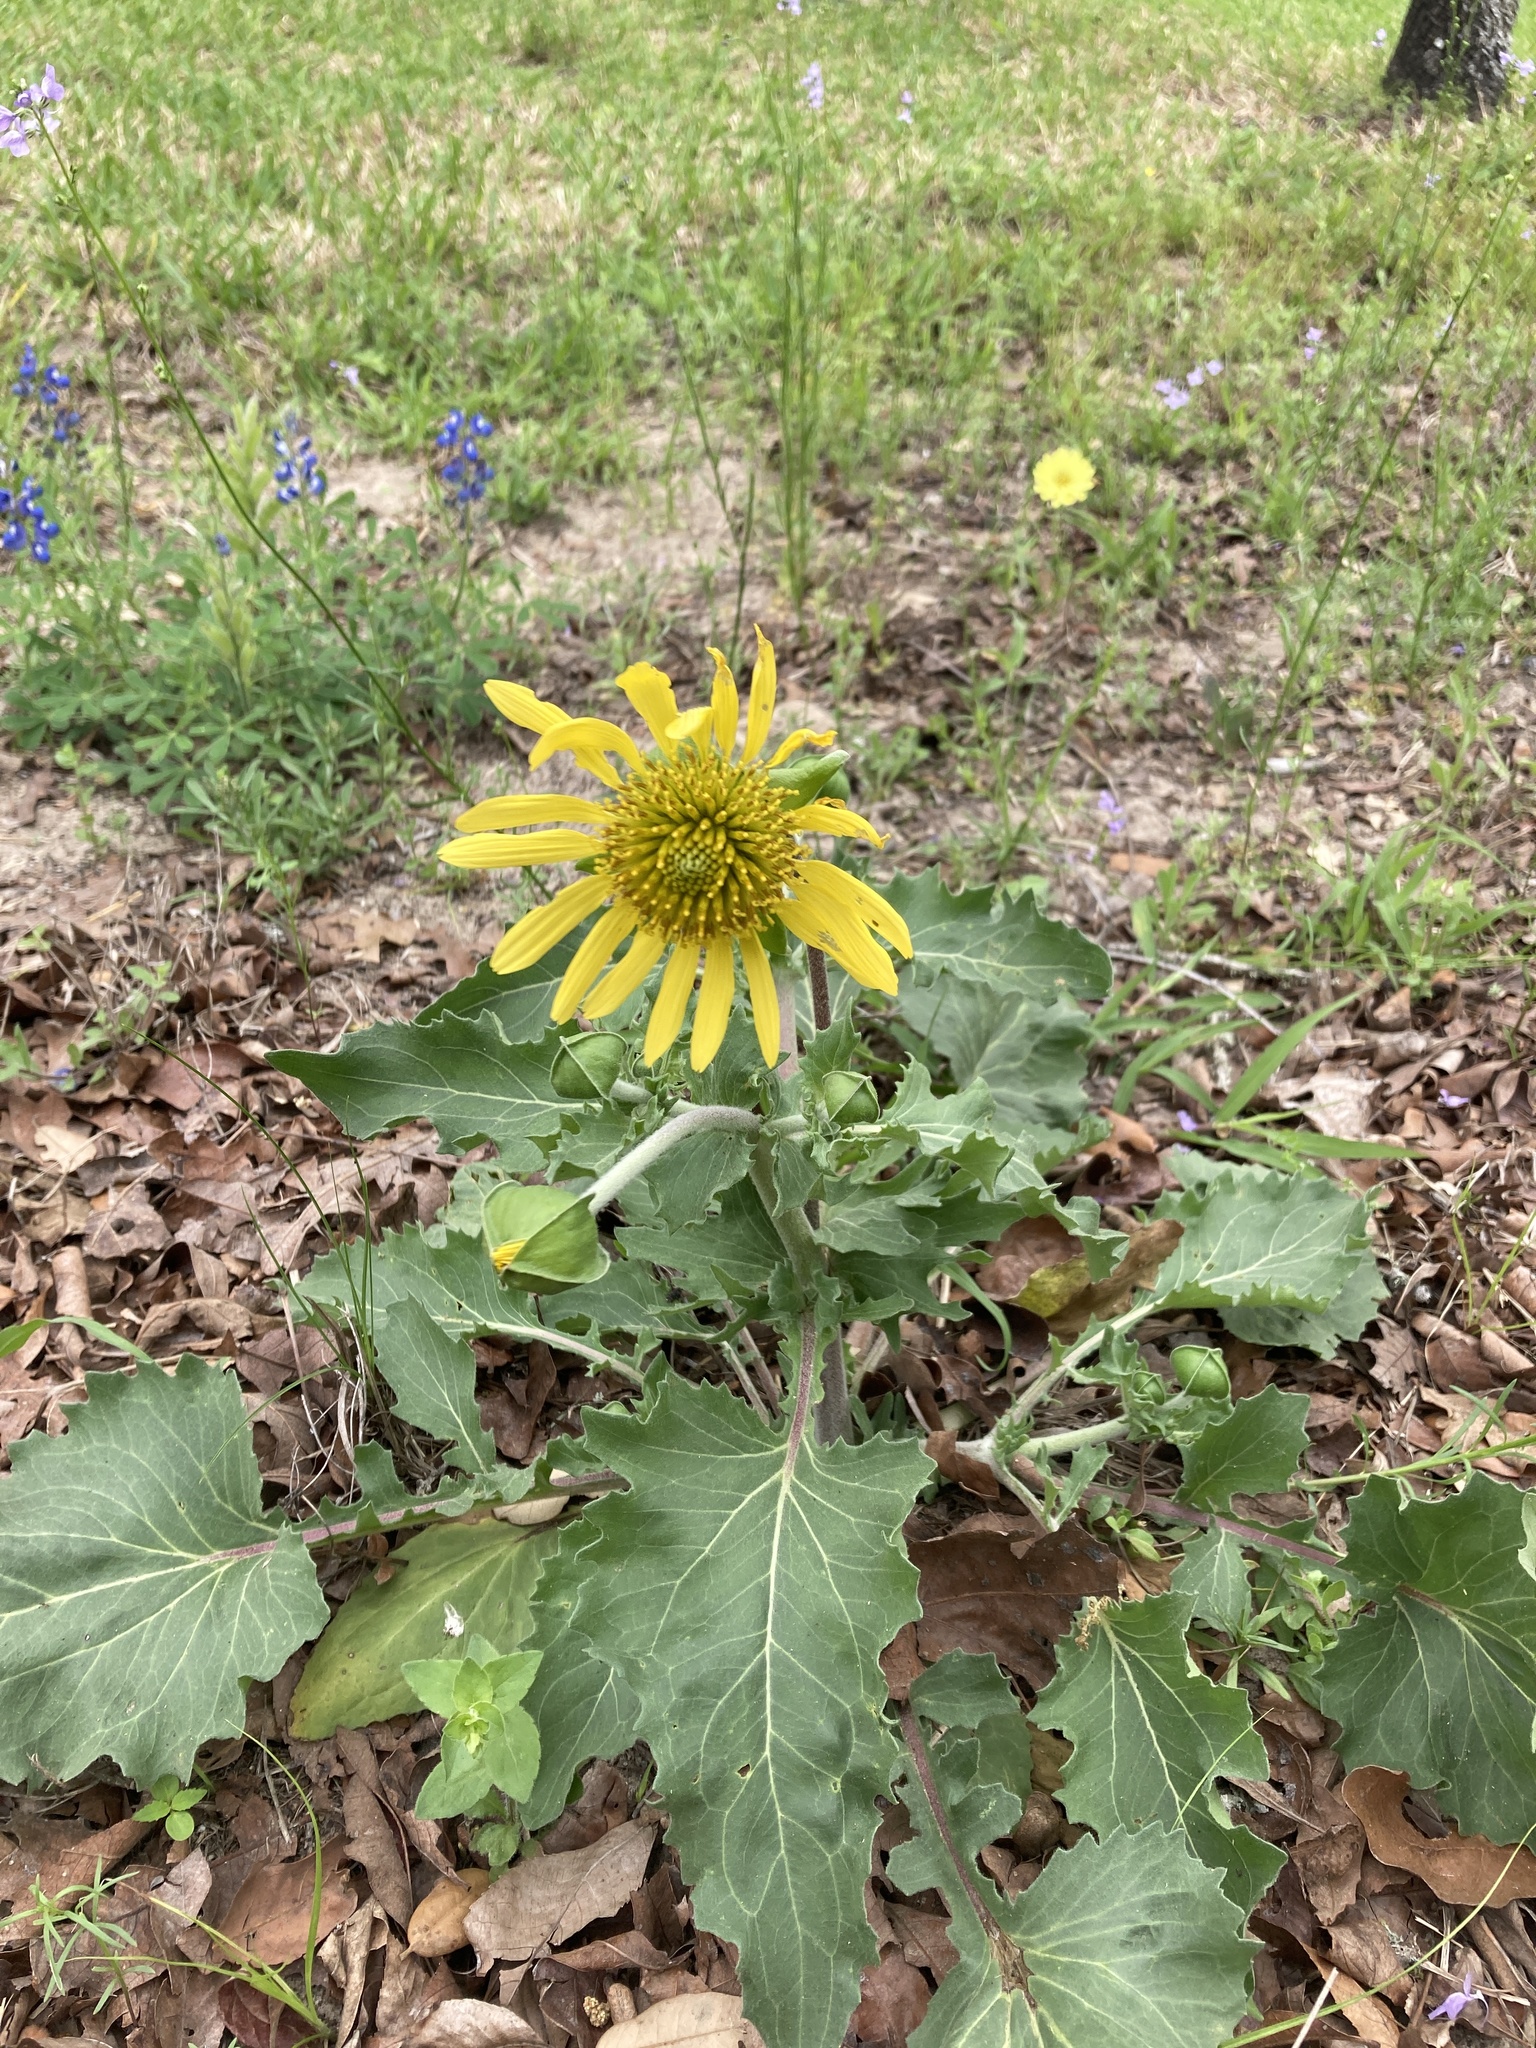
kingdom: Plantae
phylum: Tracheophyta
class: Magnoliopsida
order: Asterales
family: Asteraceae
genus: Tetragonotheca
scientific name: Tetragonotheca repanda
